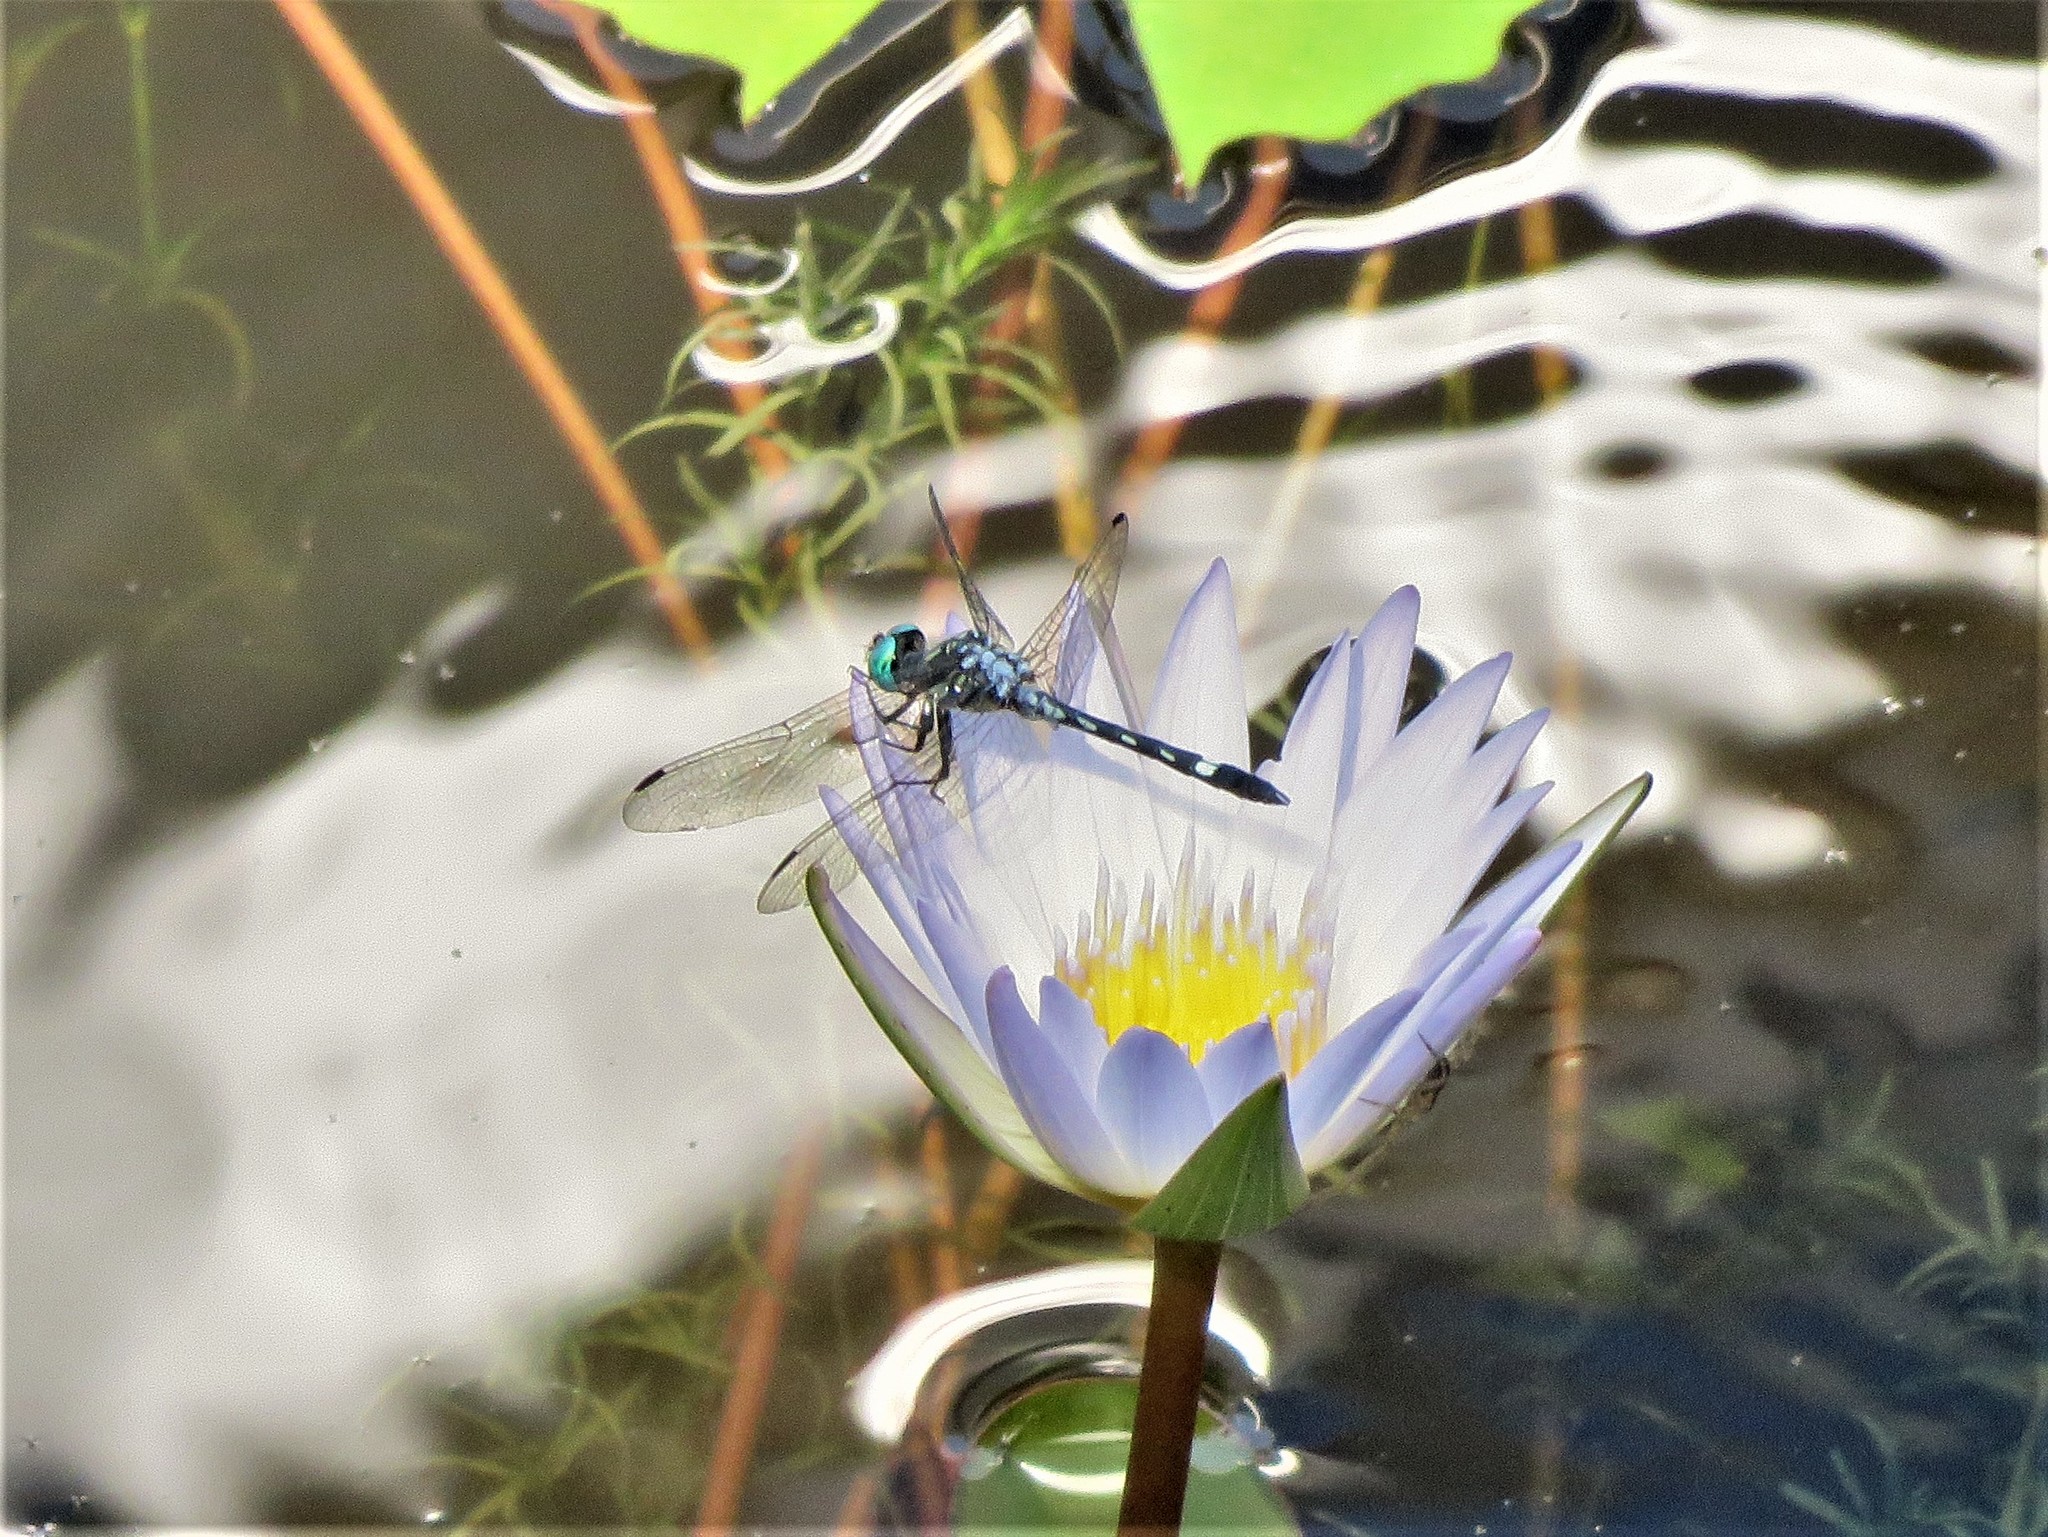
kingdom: Animalia
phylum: Arthropoda
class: Insecta
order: Odonata
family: Libellulidae
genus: Micrathyria
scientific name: Micrathyria hagenii
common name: Thornbush dasher
